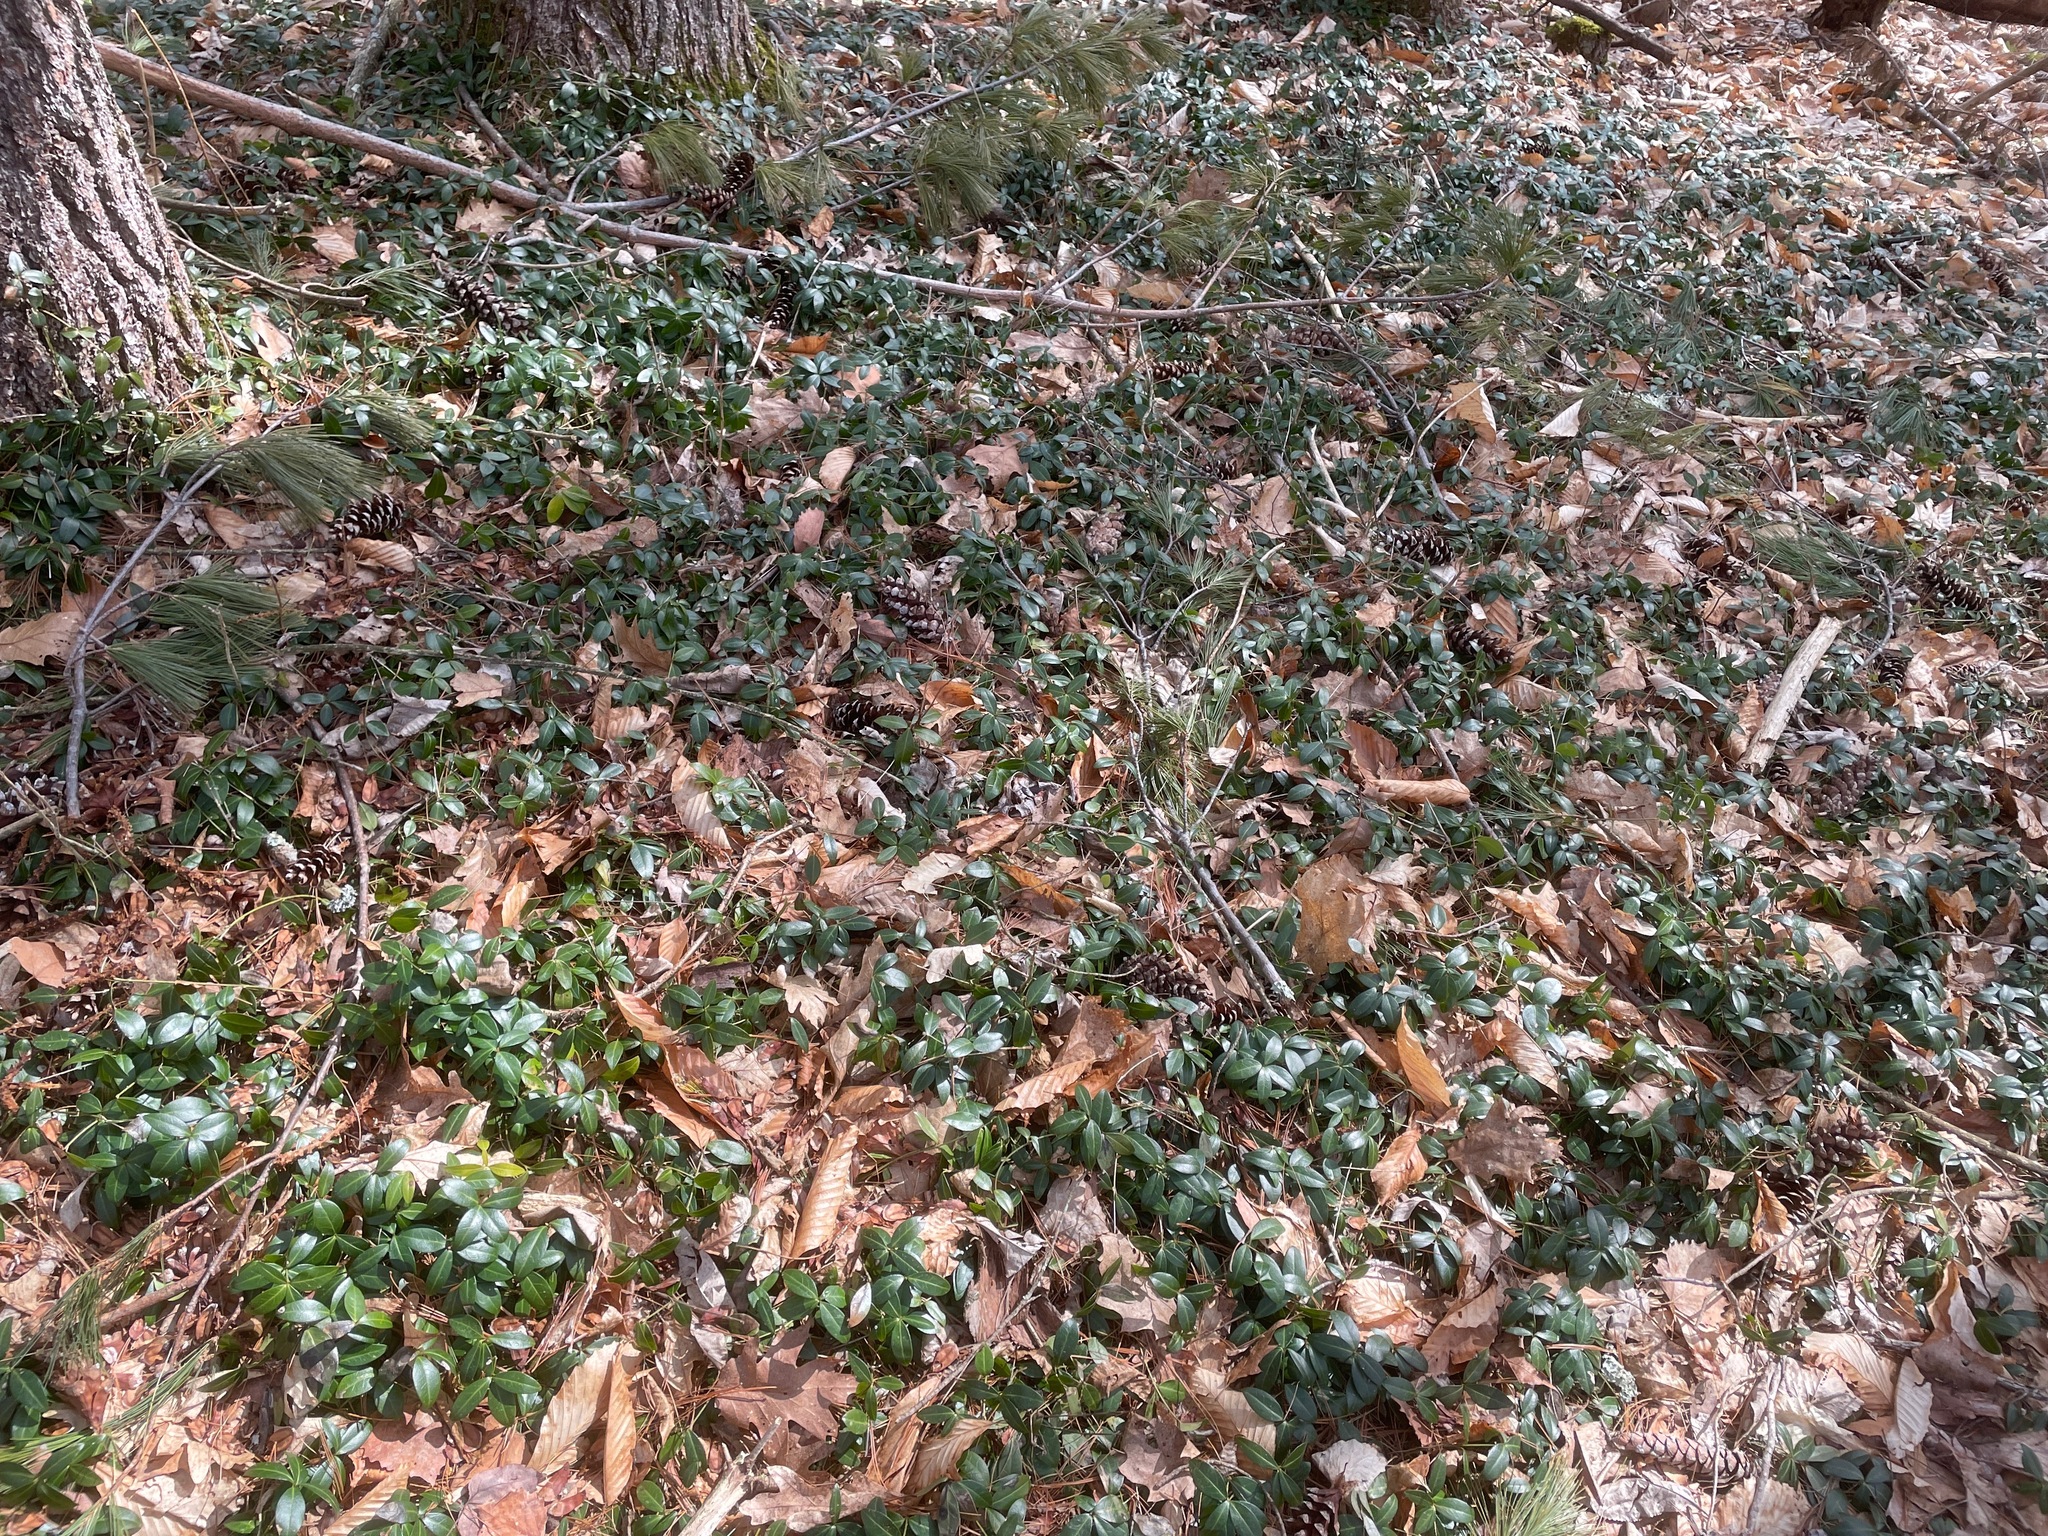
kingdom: Plantae
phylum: Tracheophyta
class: Magnoliopsida
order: Gentianales
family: Apocynaceae
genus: Vinca
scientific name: Vinca minor
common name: Lesser periwinkle
